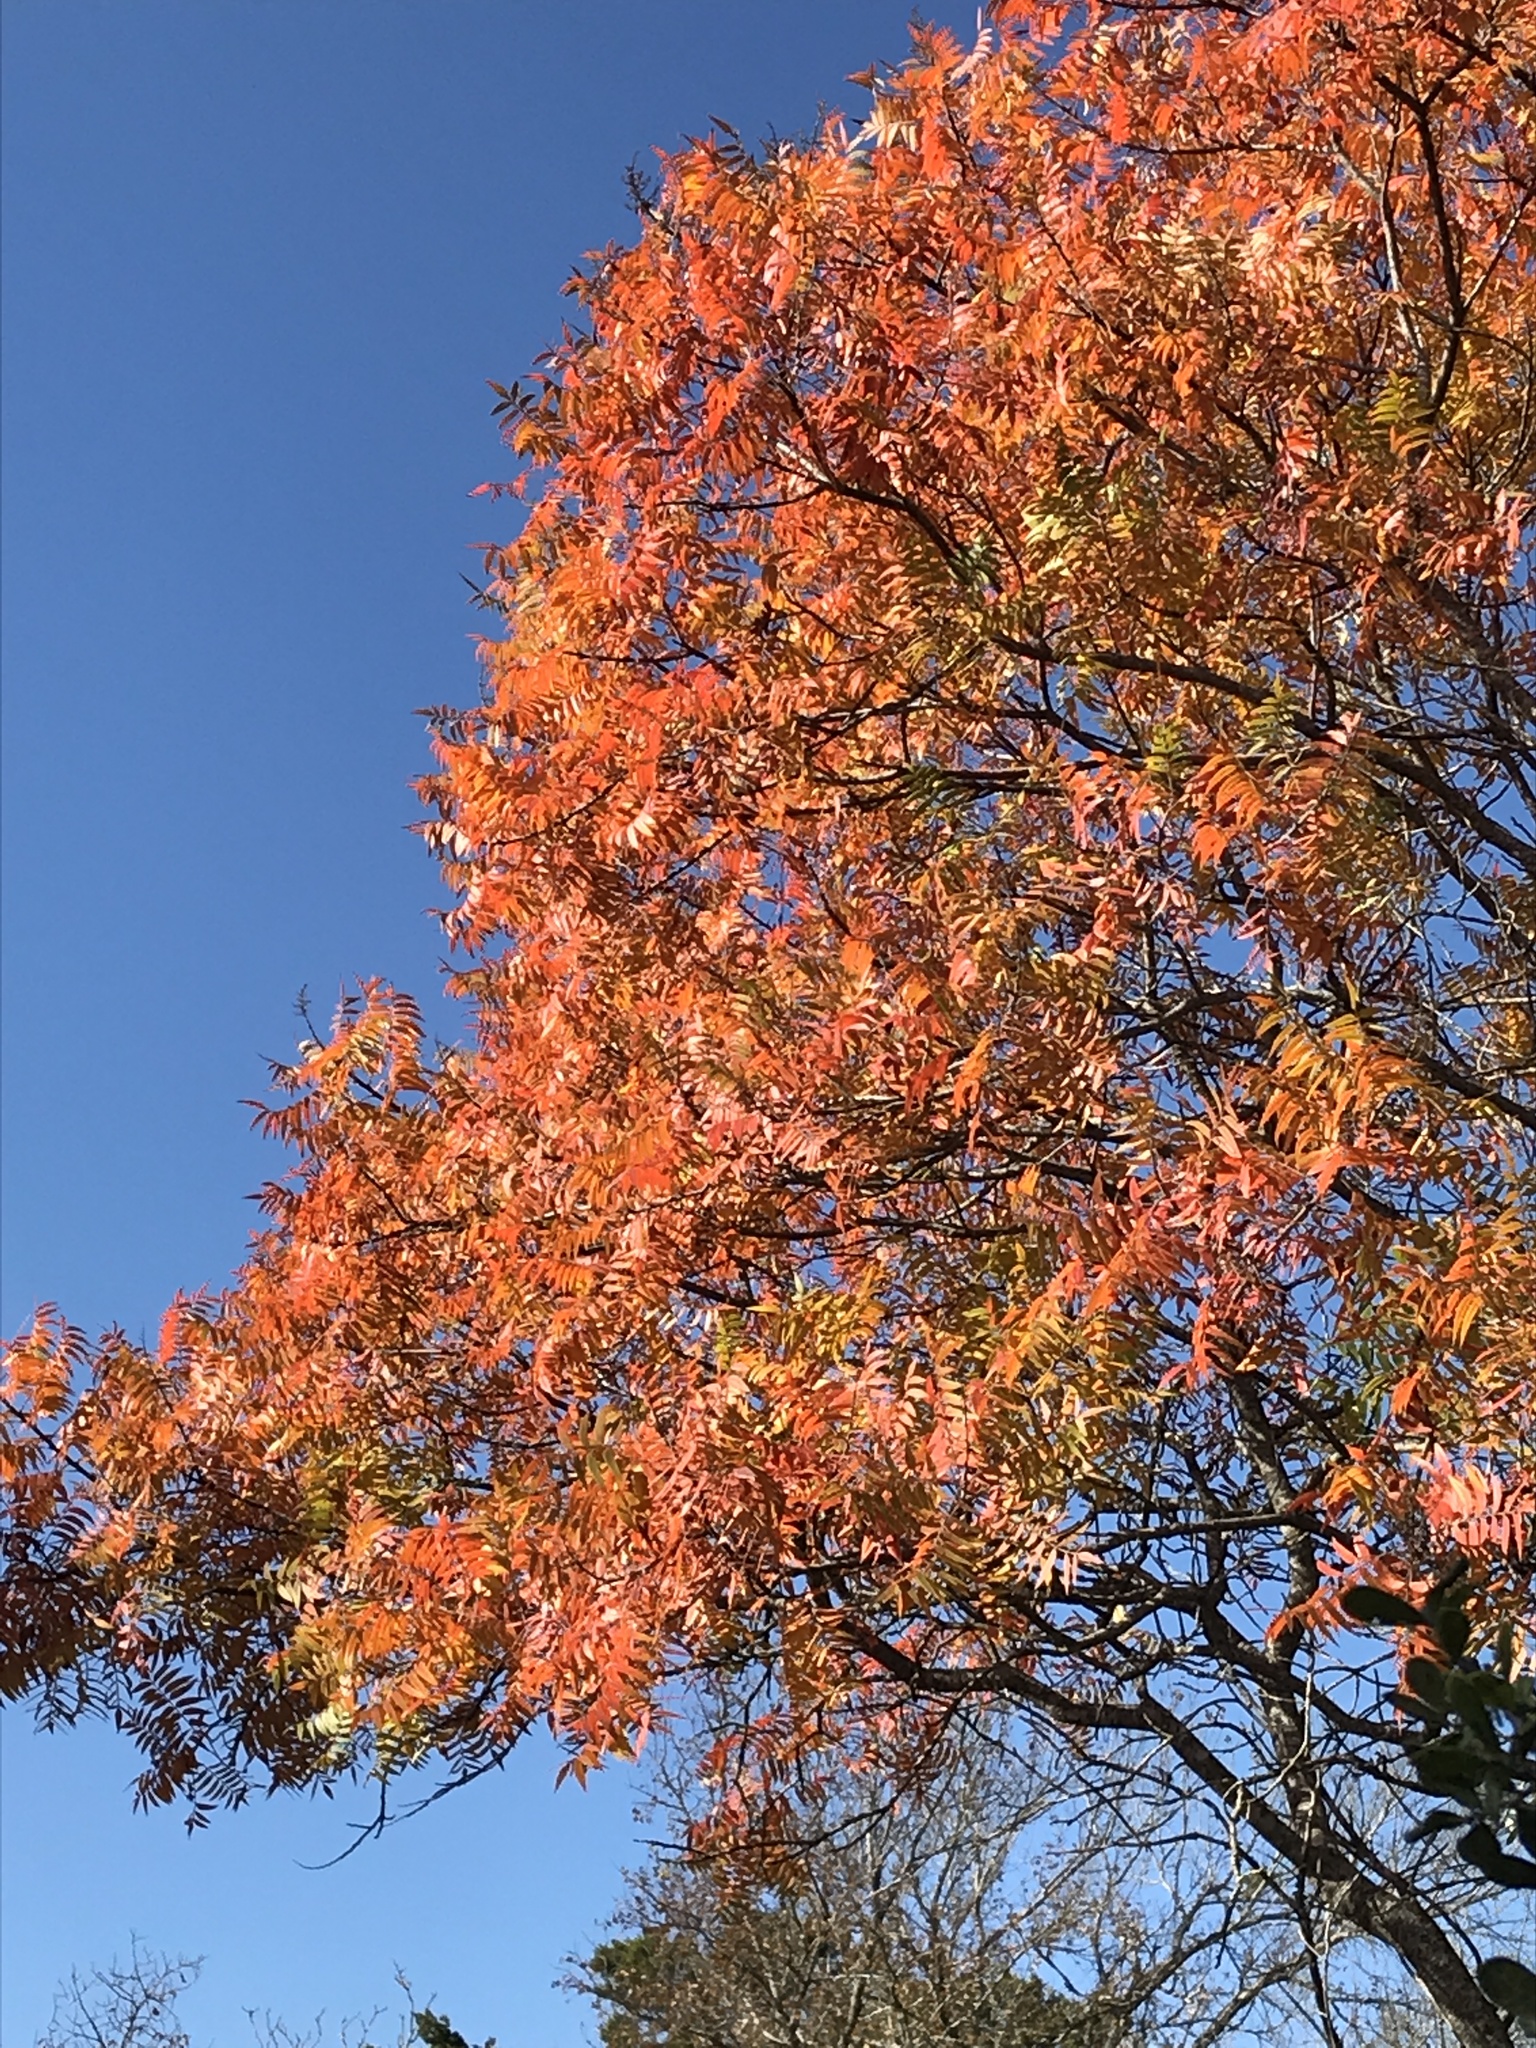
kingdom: Plantae
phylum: Tracheophyta
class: Magnoliopsida
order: Sapindales
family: Anacardiaceae
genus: Rhus
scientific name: Rhus lanceolata
